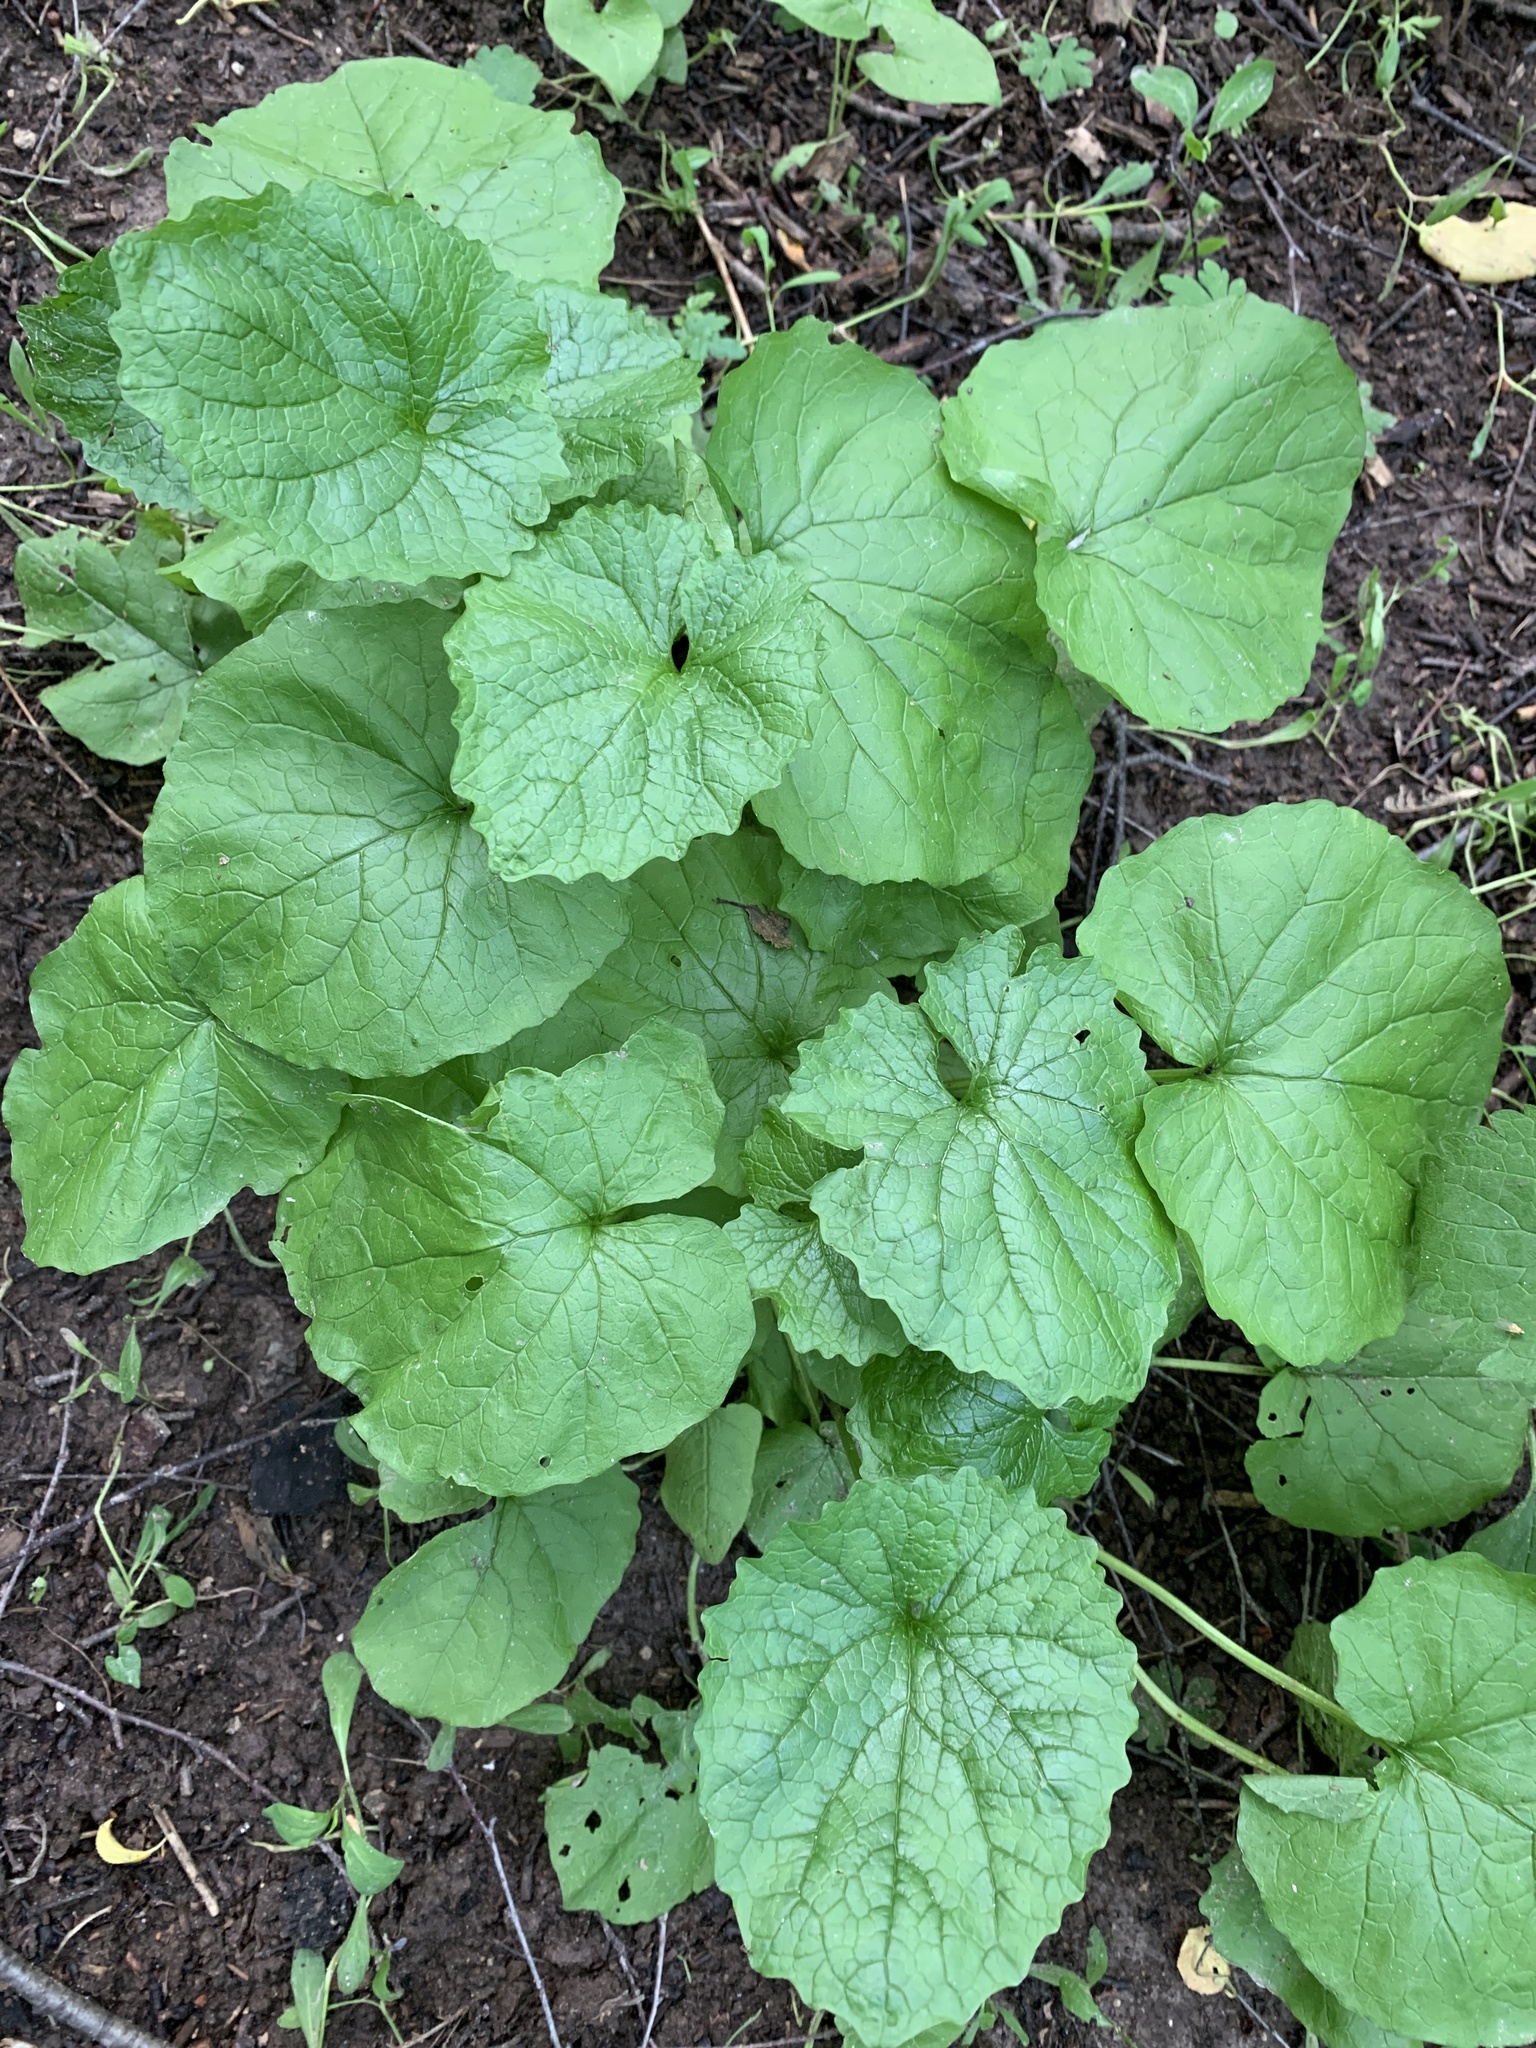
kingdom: Plantae
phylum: Tracheophyta
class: Magnoliopsida
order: Brassicales
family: Brassicaceae
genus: Alliaria
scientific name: Alliaria petiolata
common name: Garlic mustard
